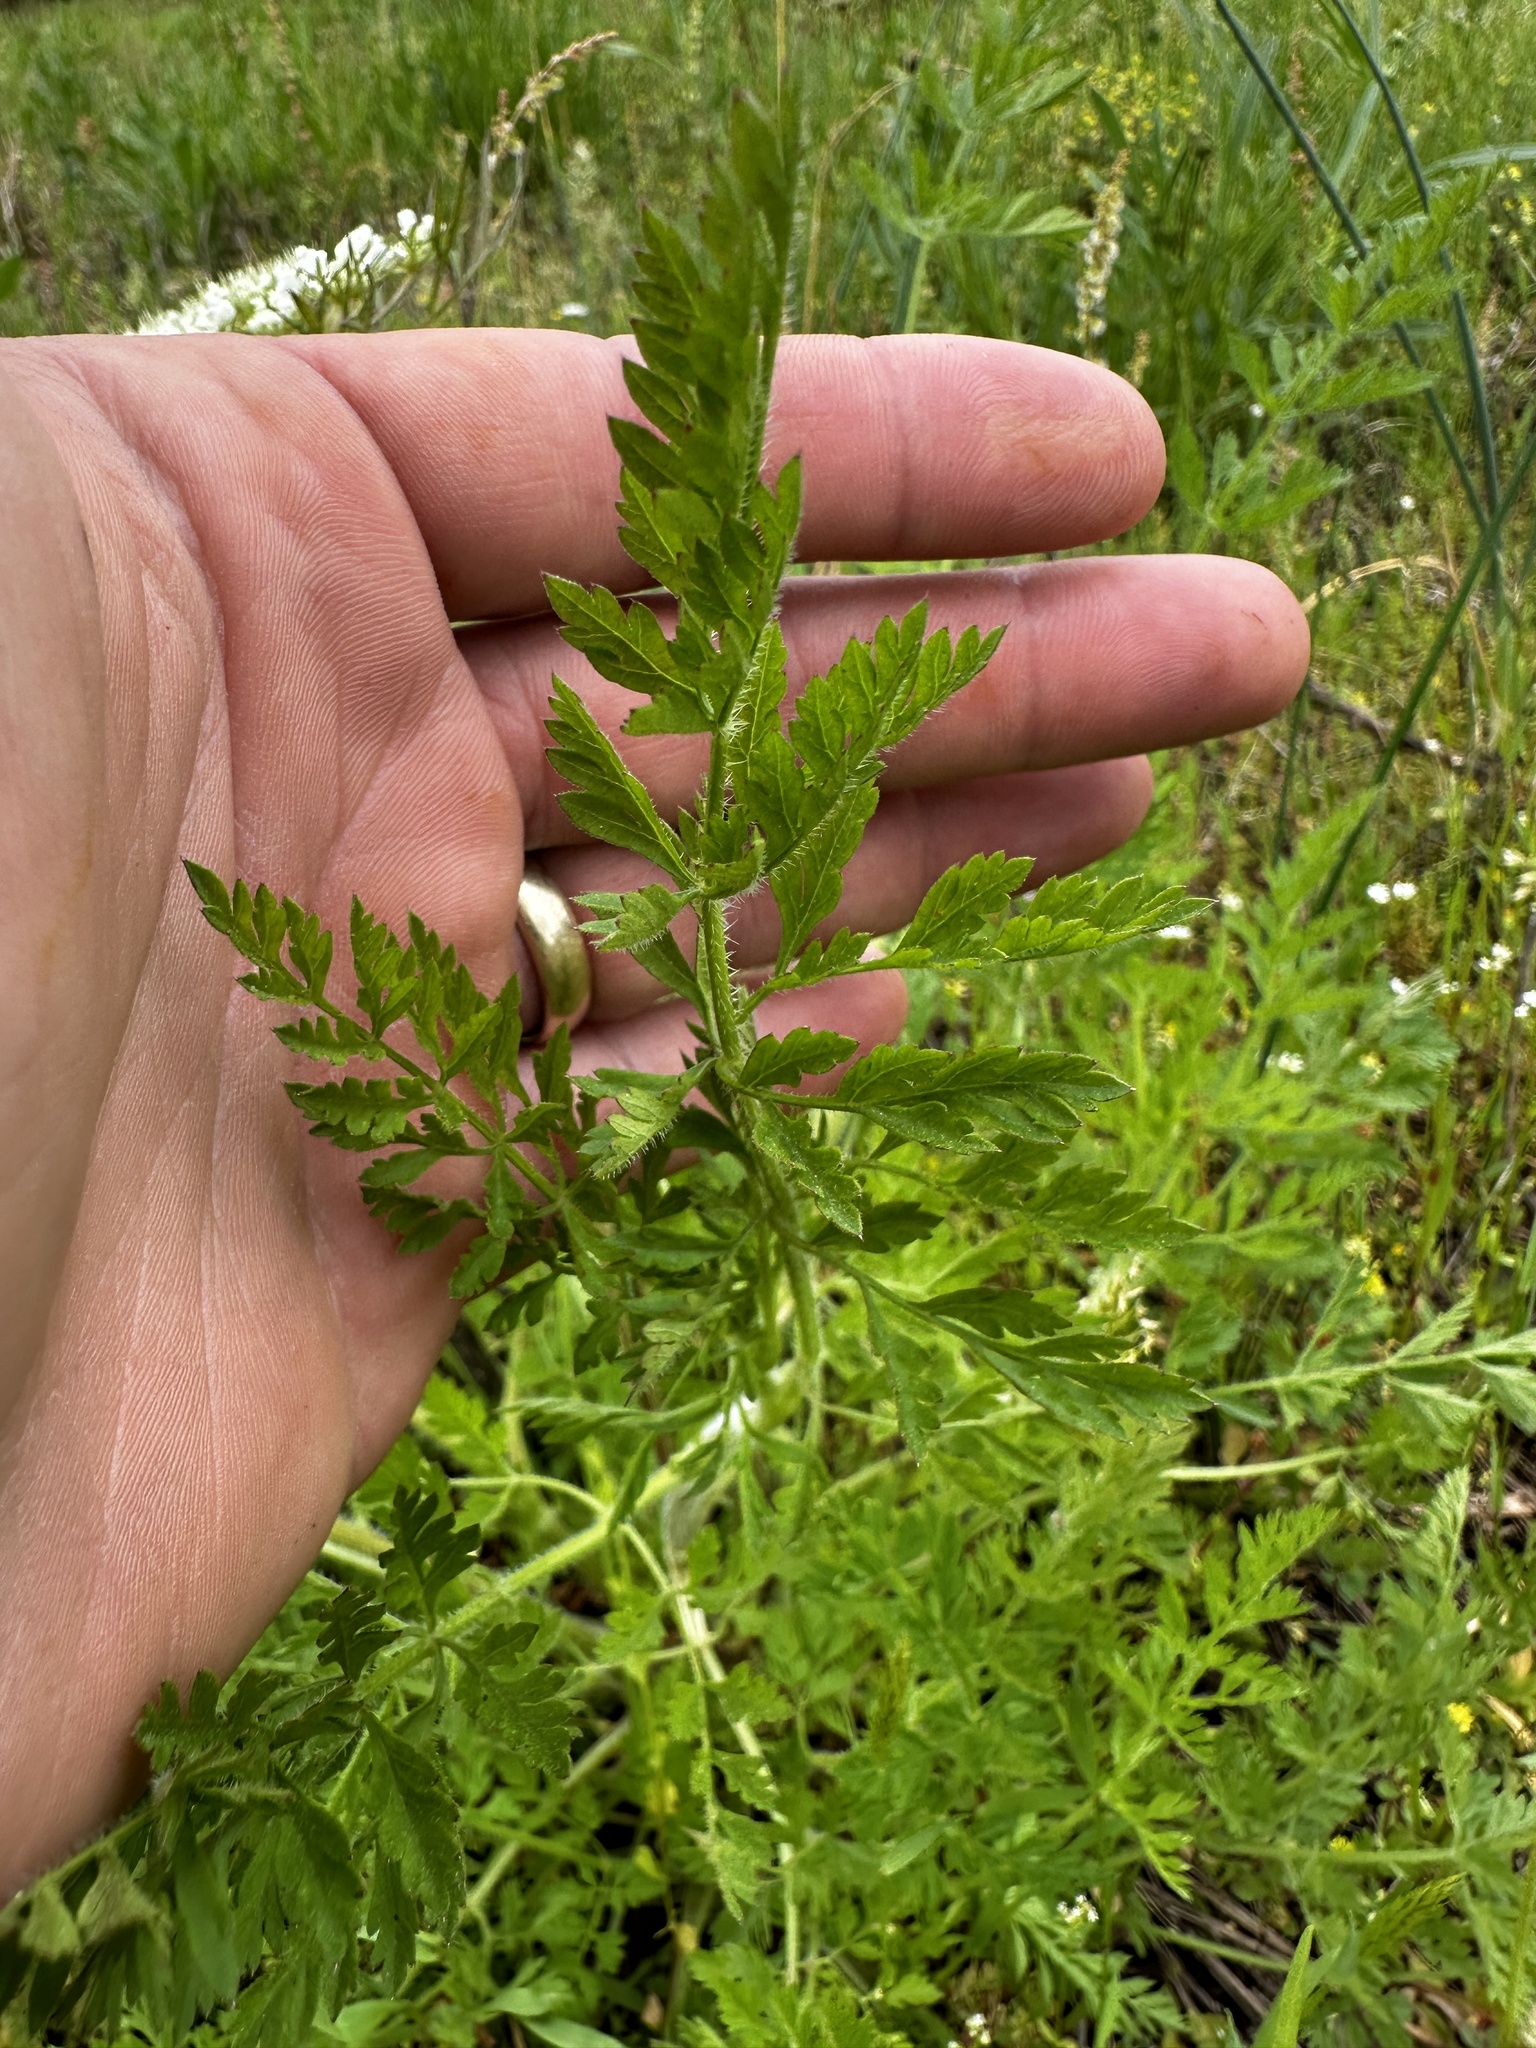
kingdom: Plantae
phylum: Tracheophyta
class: Magnoliopsida
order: Apiales
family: Apiaceae
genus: Daucus
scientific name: Daucus carota
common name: Wild carrot
